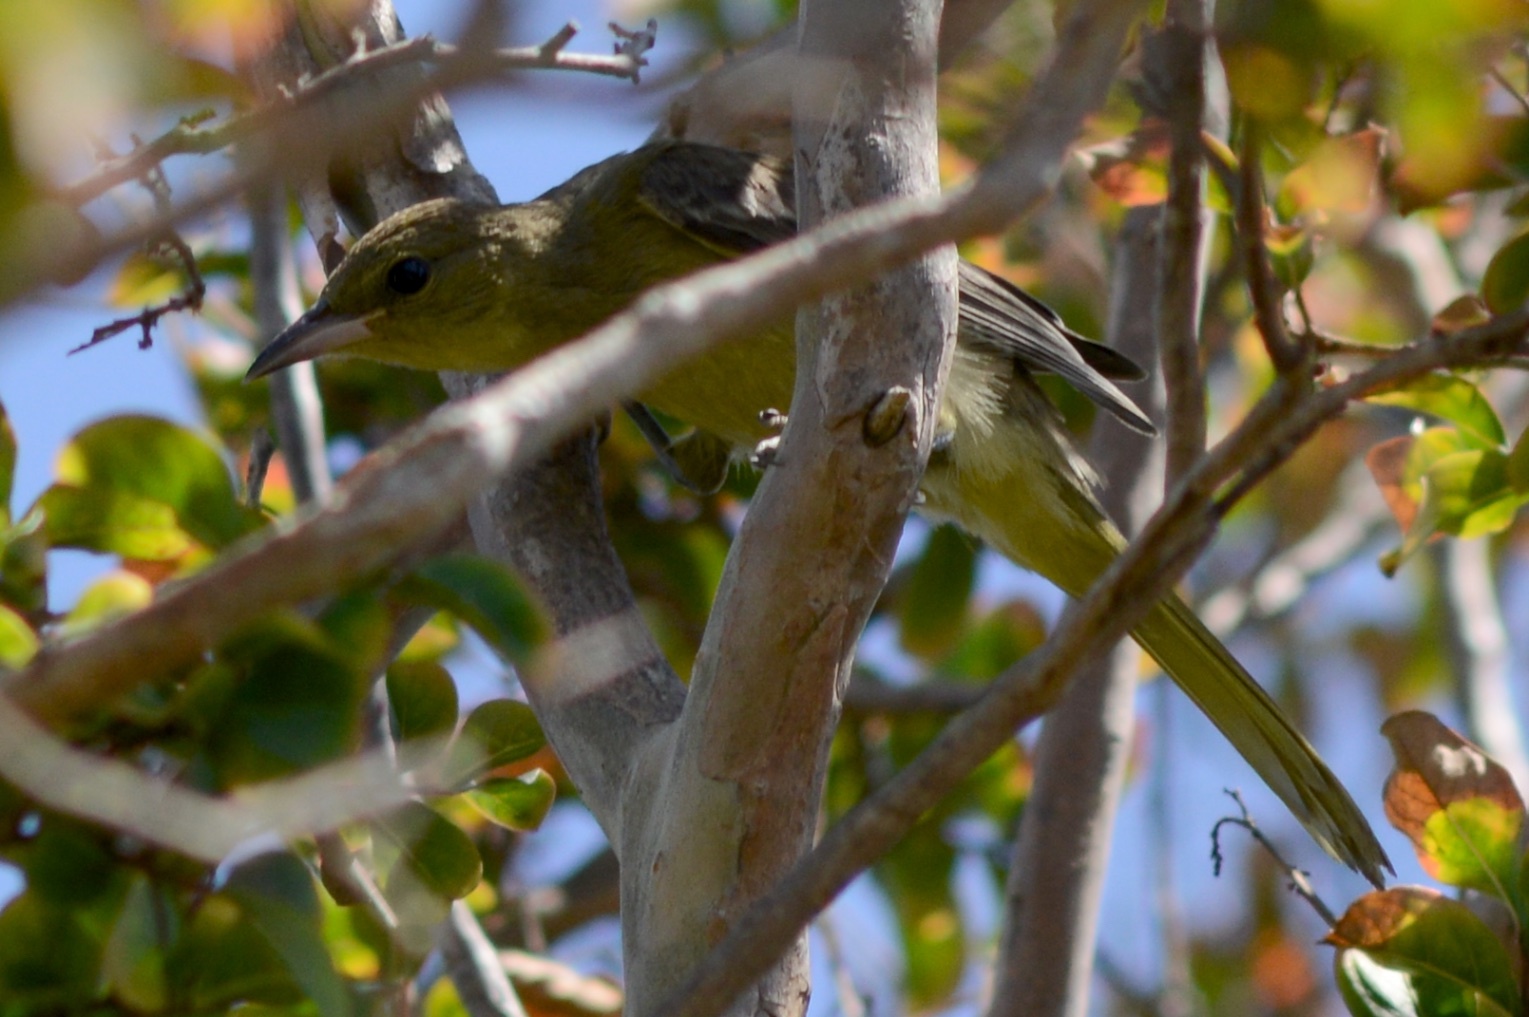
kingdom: Animalia
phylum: Chordata
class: Aves
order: Passeriformes
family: Icteridae
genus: Icterus
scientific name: Icterus cucullatus
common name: Hooded oriole
